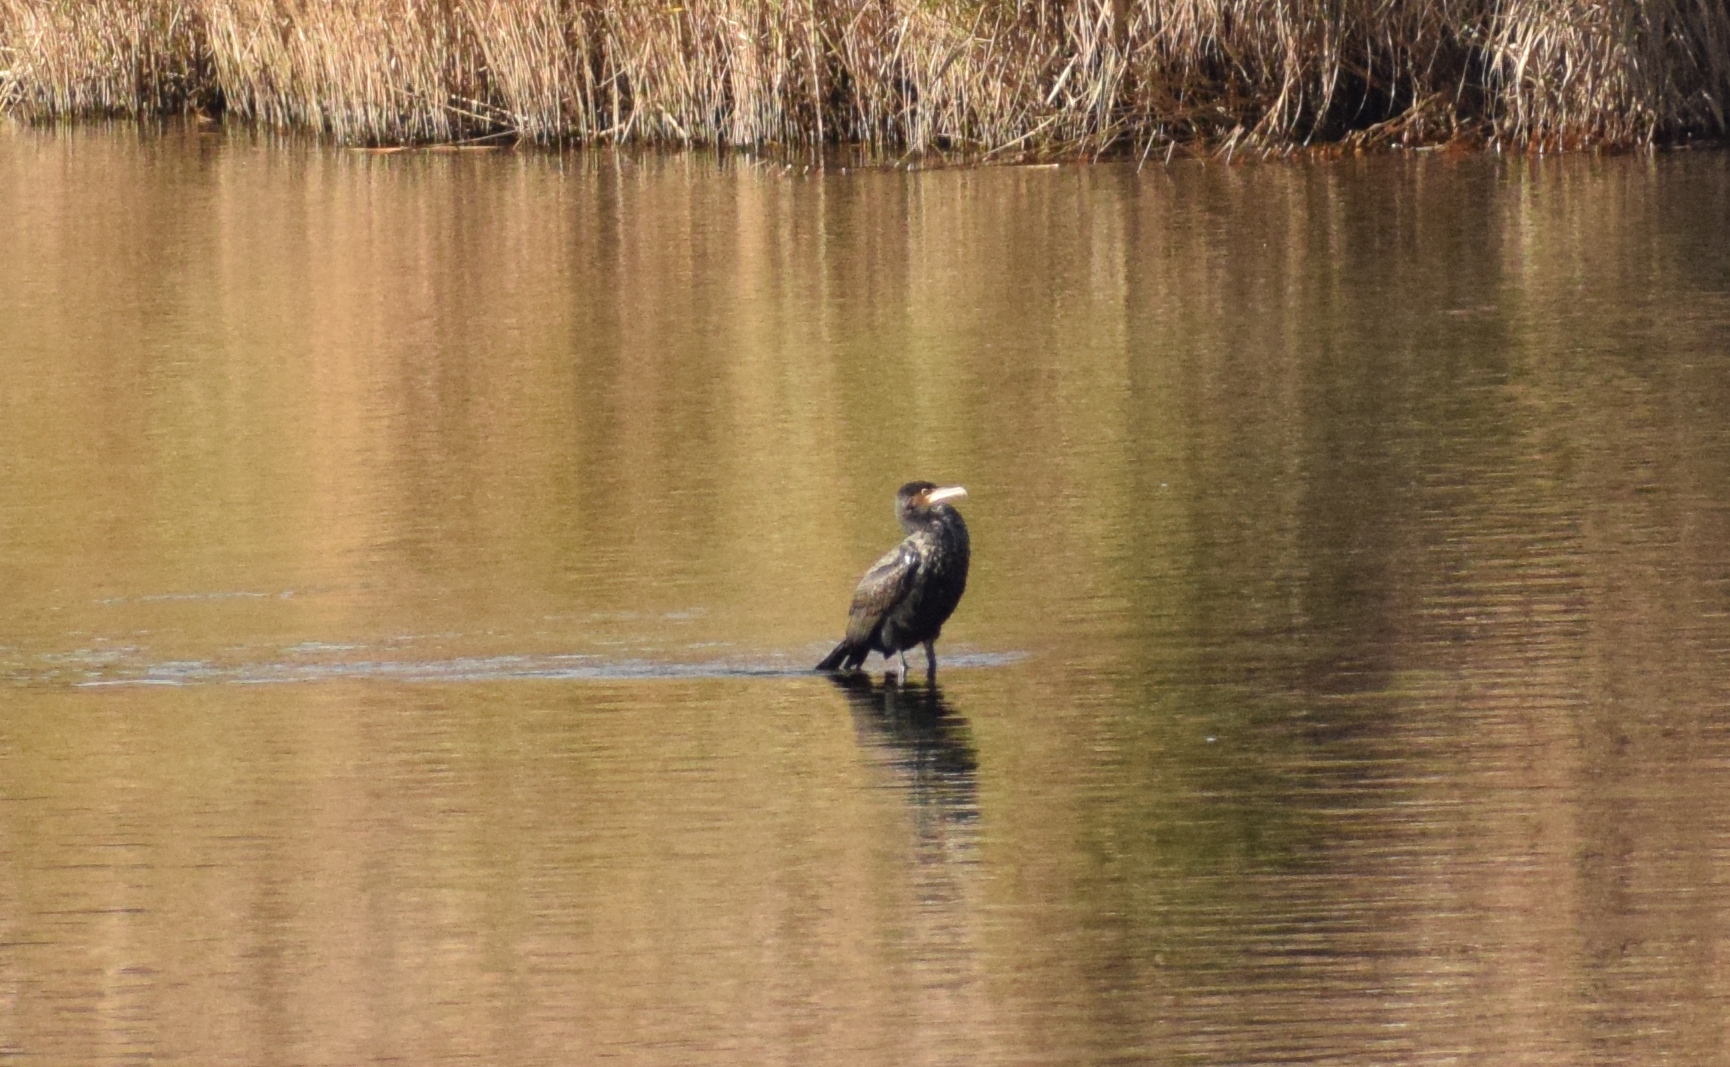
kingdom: Animalia
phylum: Chordata
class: Aves
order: Suliformes
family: Phalacrocoracidae
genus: Phalacrocorax
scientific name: Phalacrocorax carbo
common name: Great cormorant
